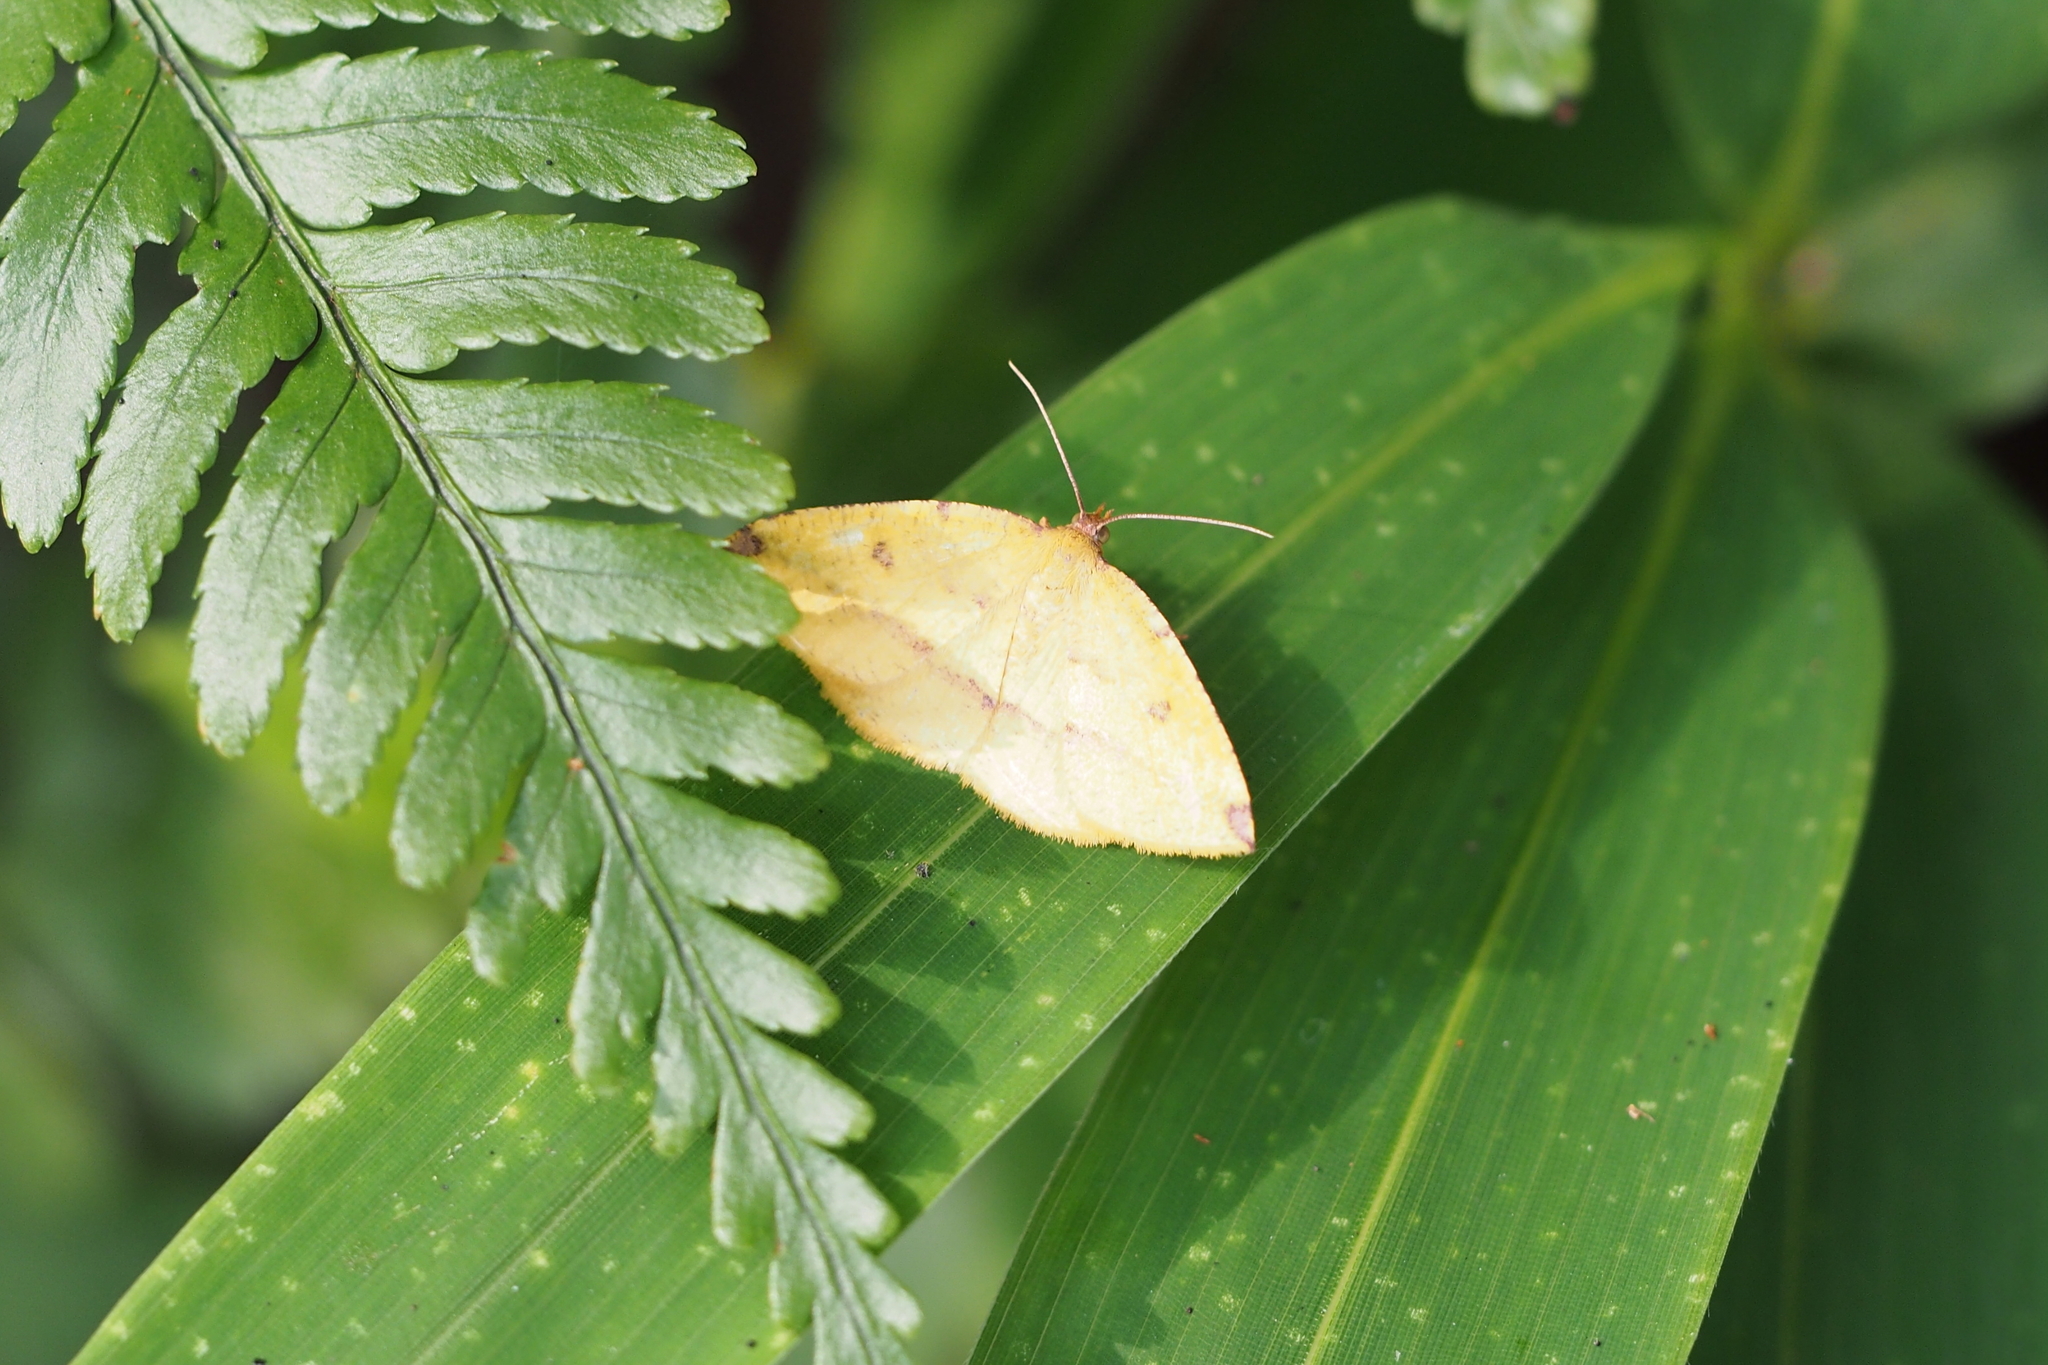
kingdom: Animalia
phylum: Arthropoda
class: Insecta
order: Lepidoptera
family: Geometridae
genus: Heterolocha
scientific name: Heterolocha aristonaria
